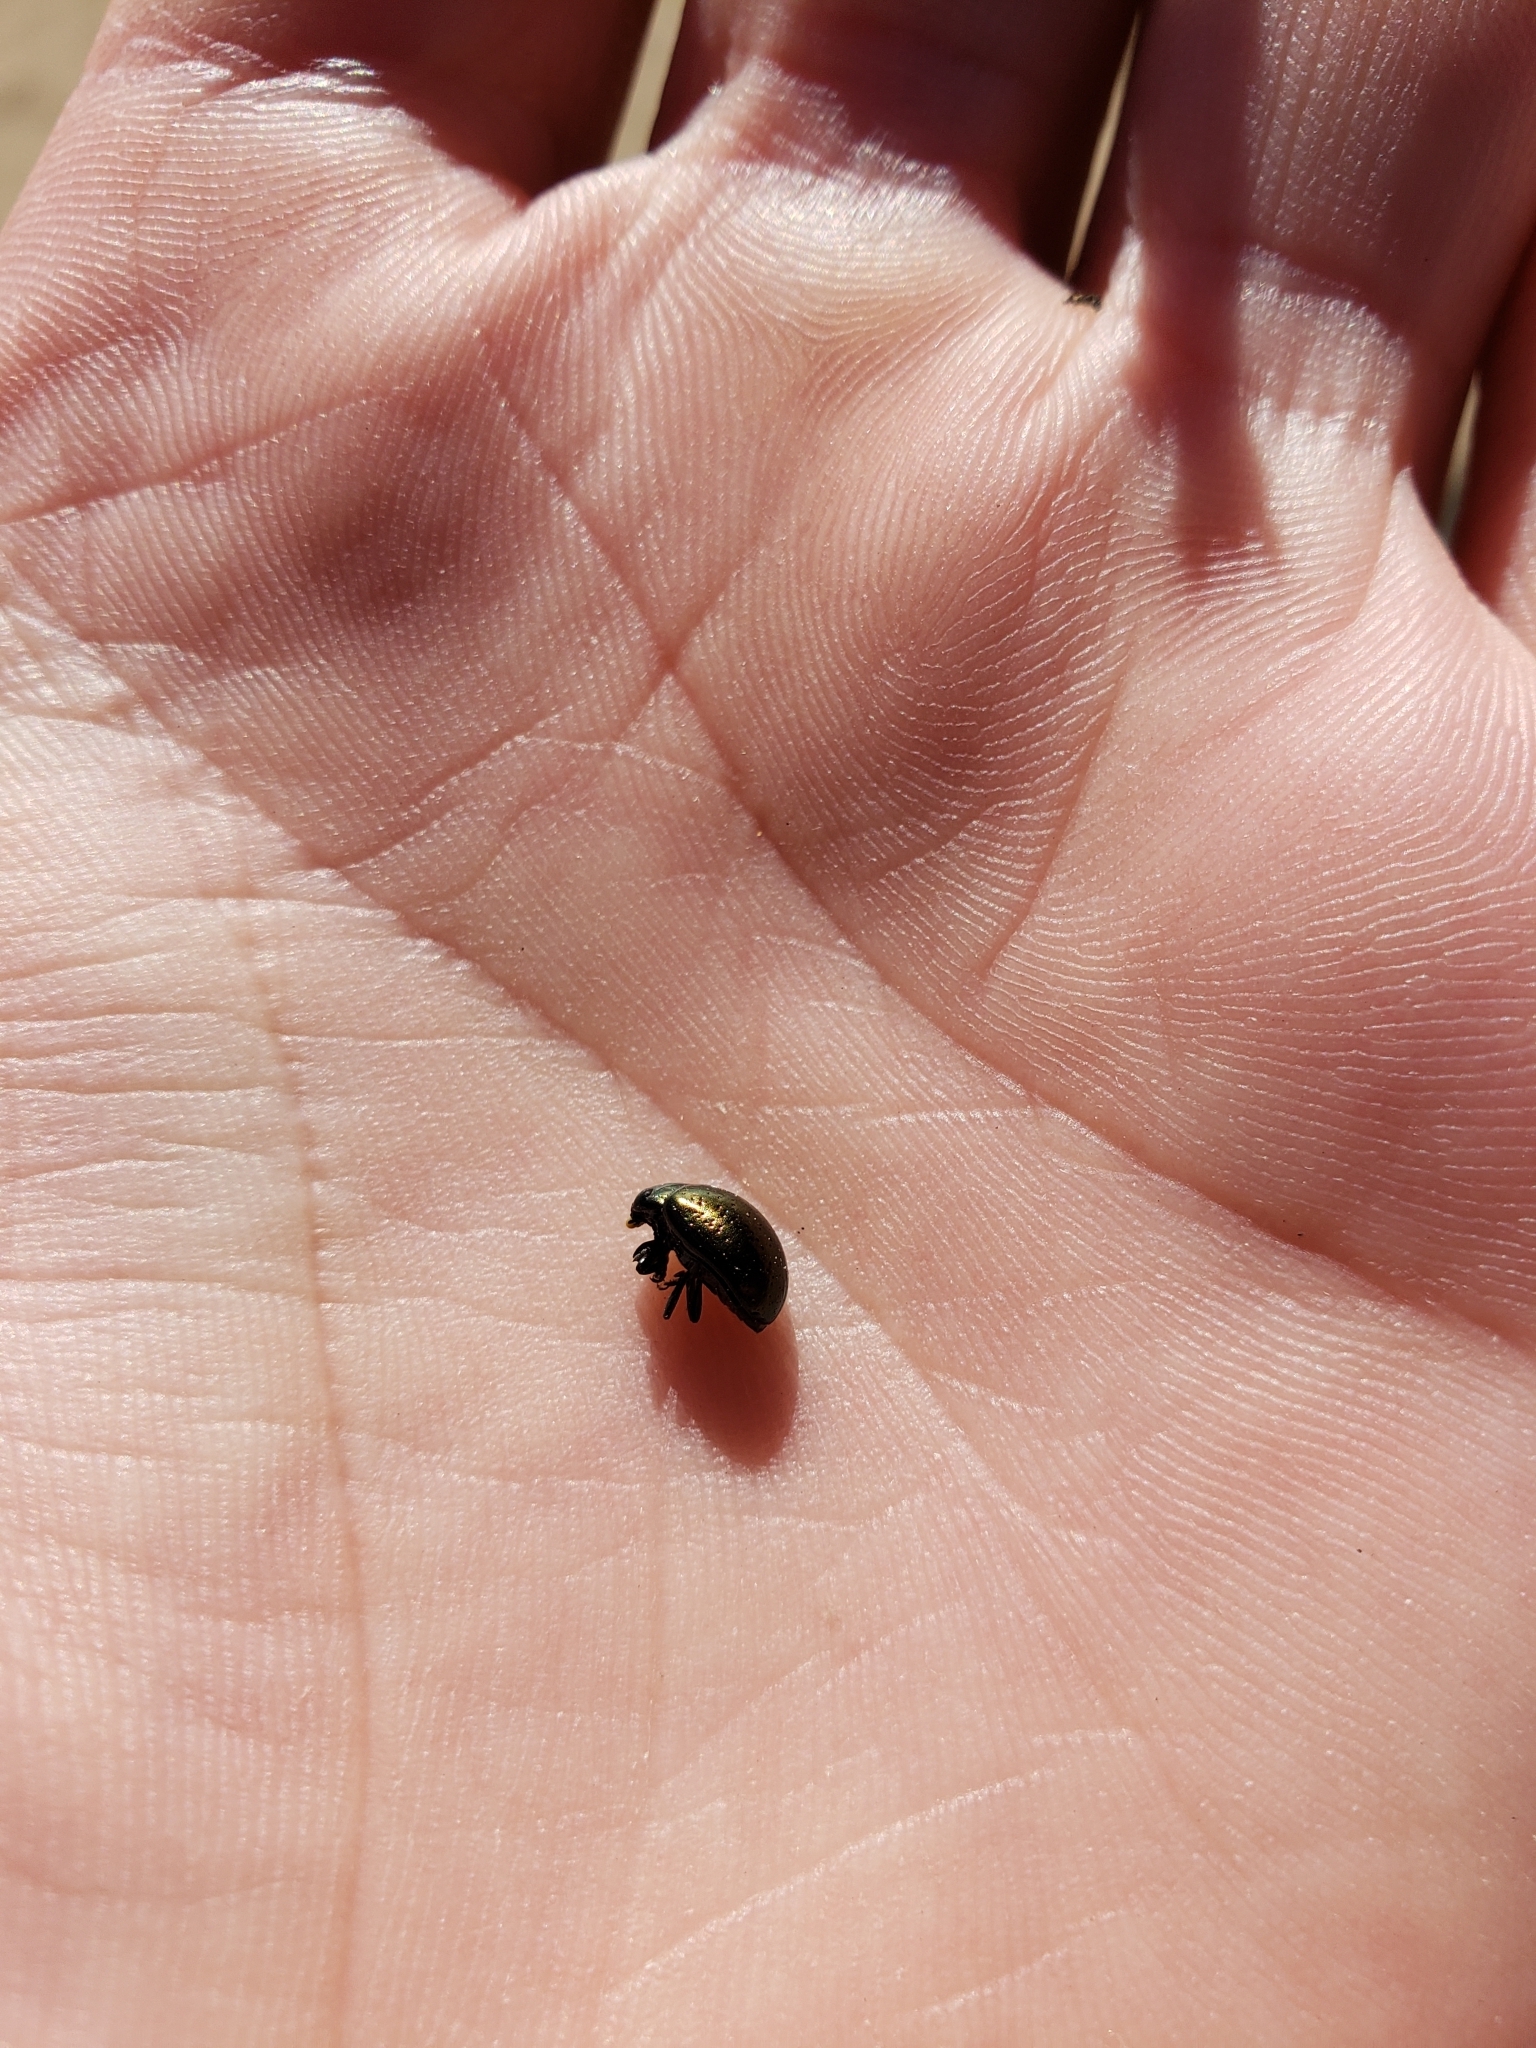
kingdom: Animalia
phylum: Arthropoda
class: Insecta
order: Coleoptera
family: Chrysomelidae
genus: Chrysolina
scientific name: Chrysolina hyperici
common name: St. johnswort beetle
